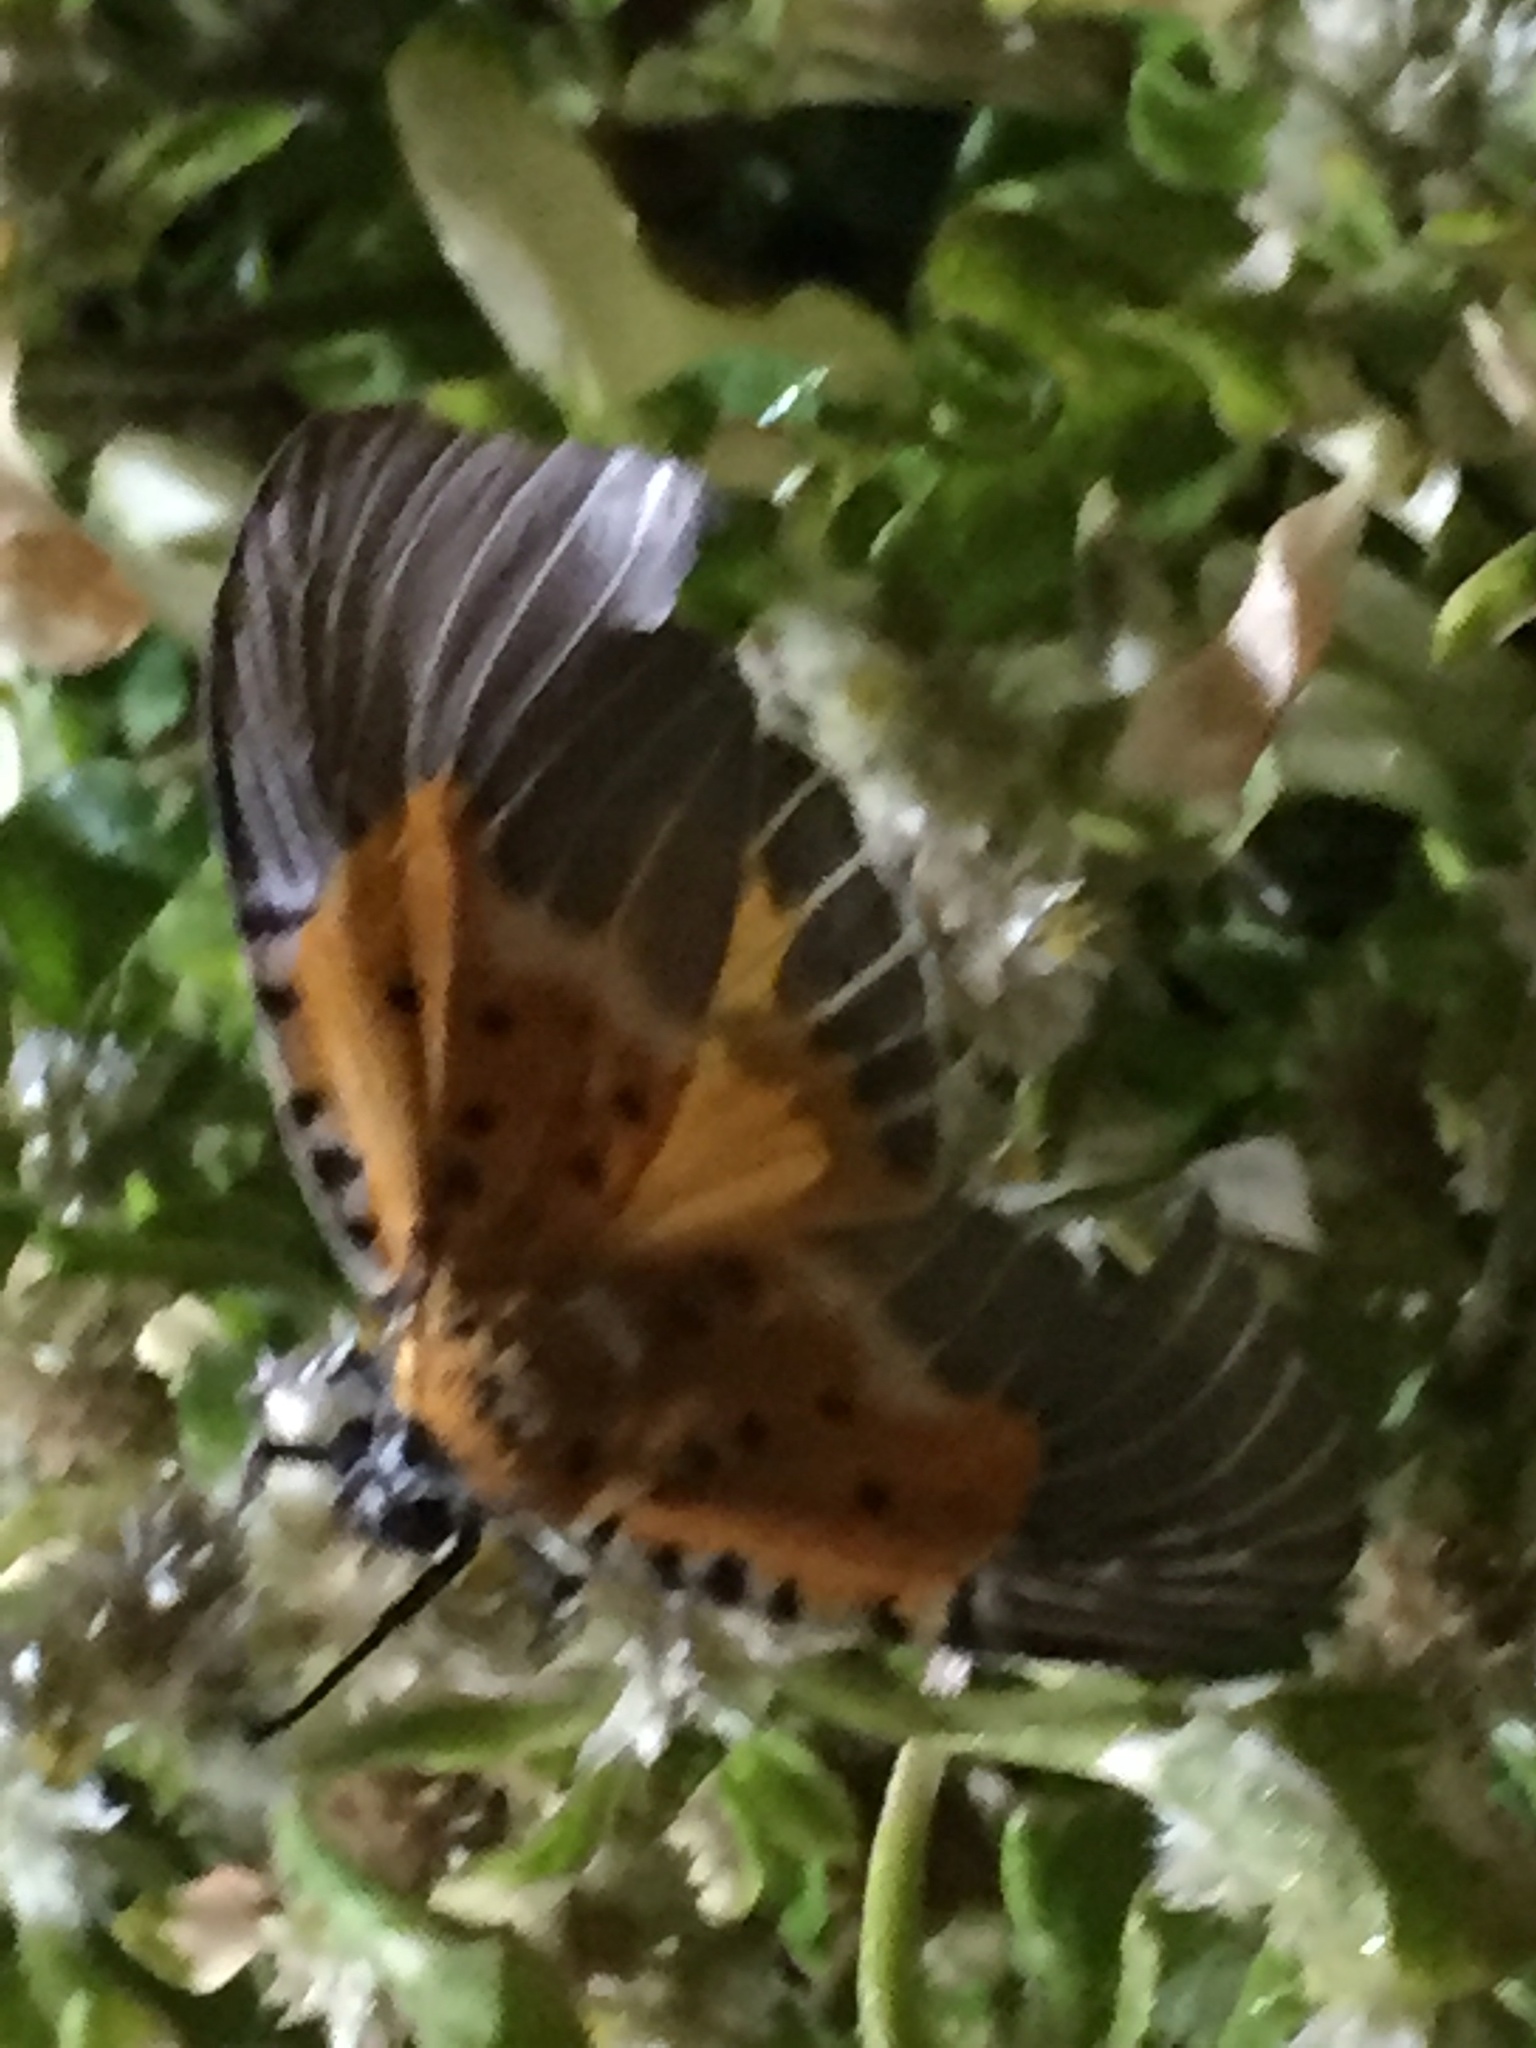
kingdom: Animalia
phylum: Arthropoda
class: Insecta
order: Lepidoptera
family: Erebidae
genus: Peridrome
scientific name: Peridrome subfascia
